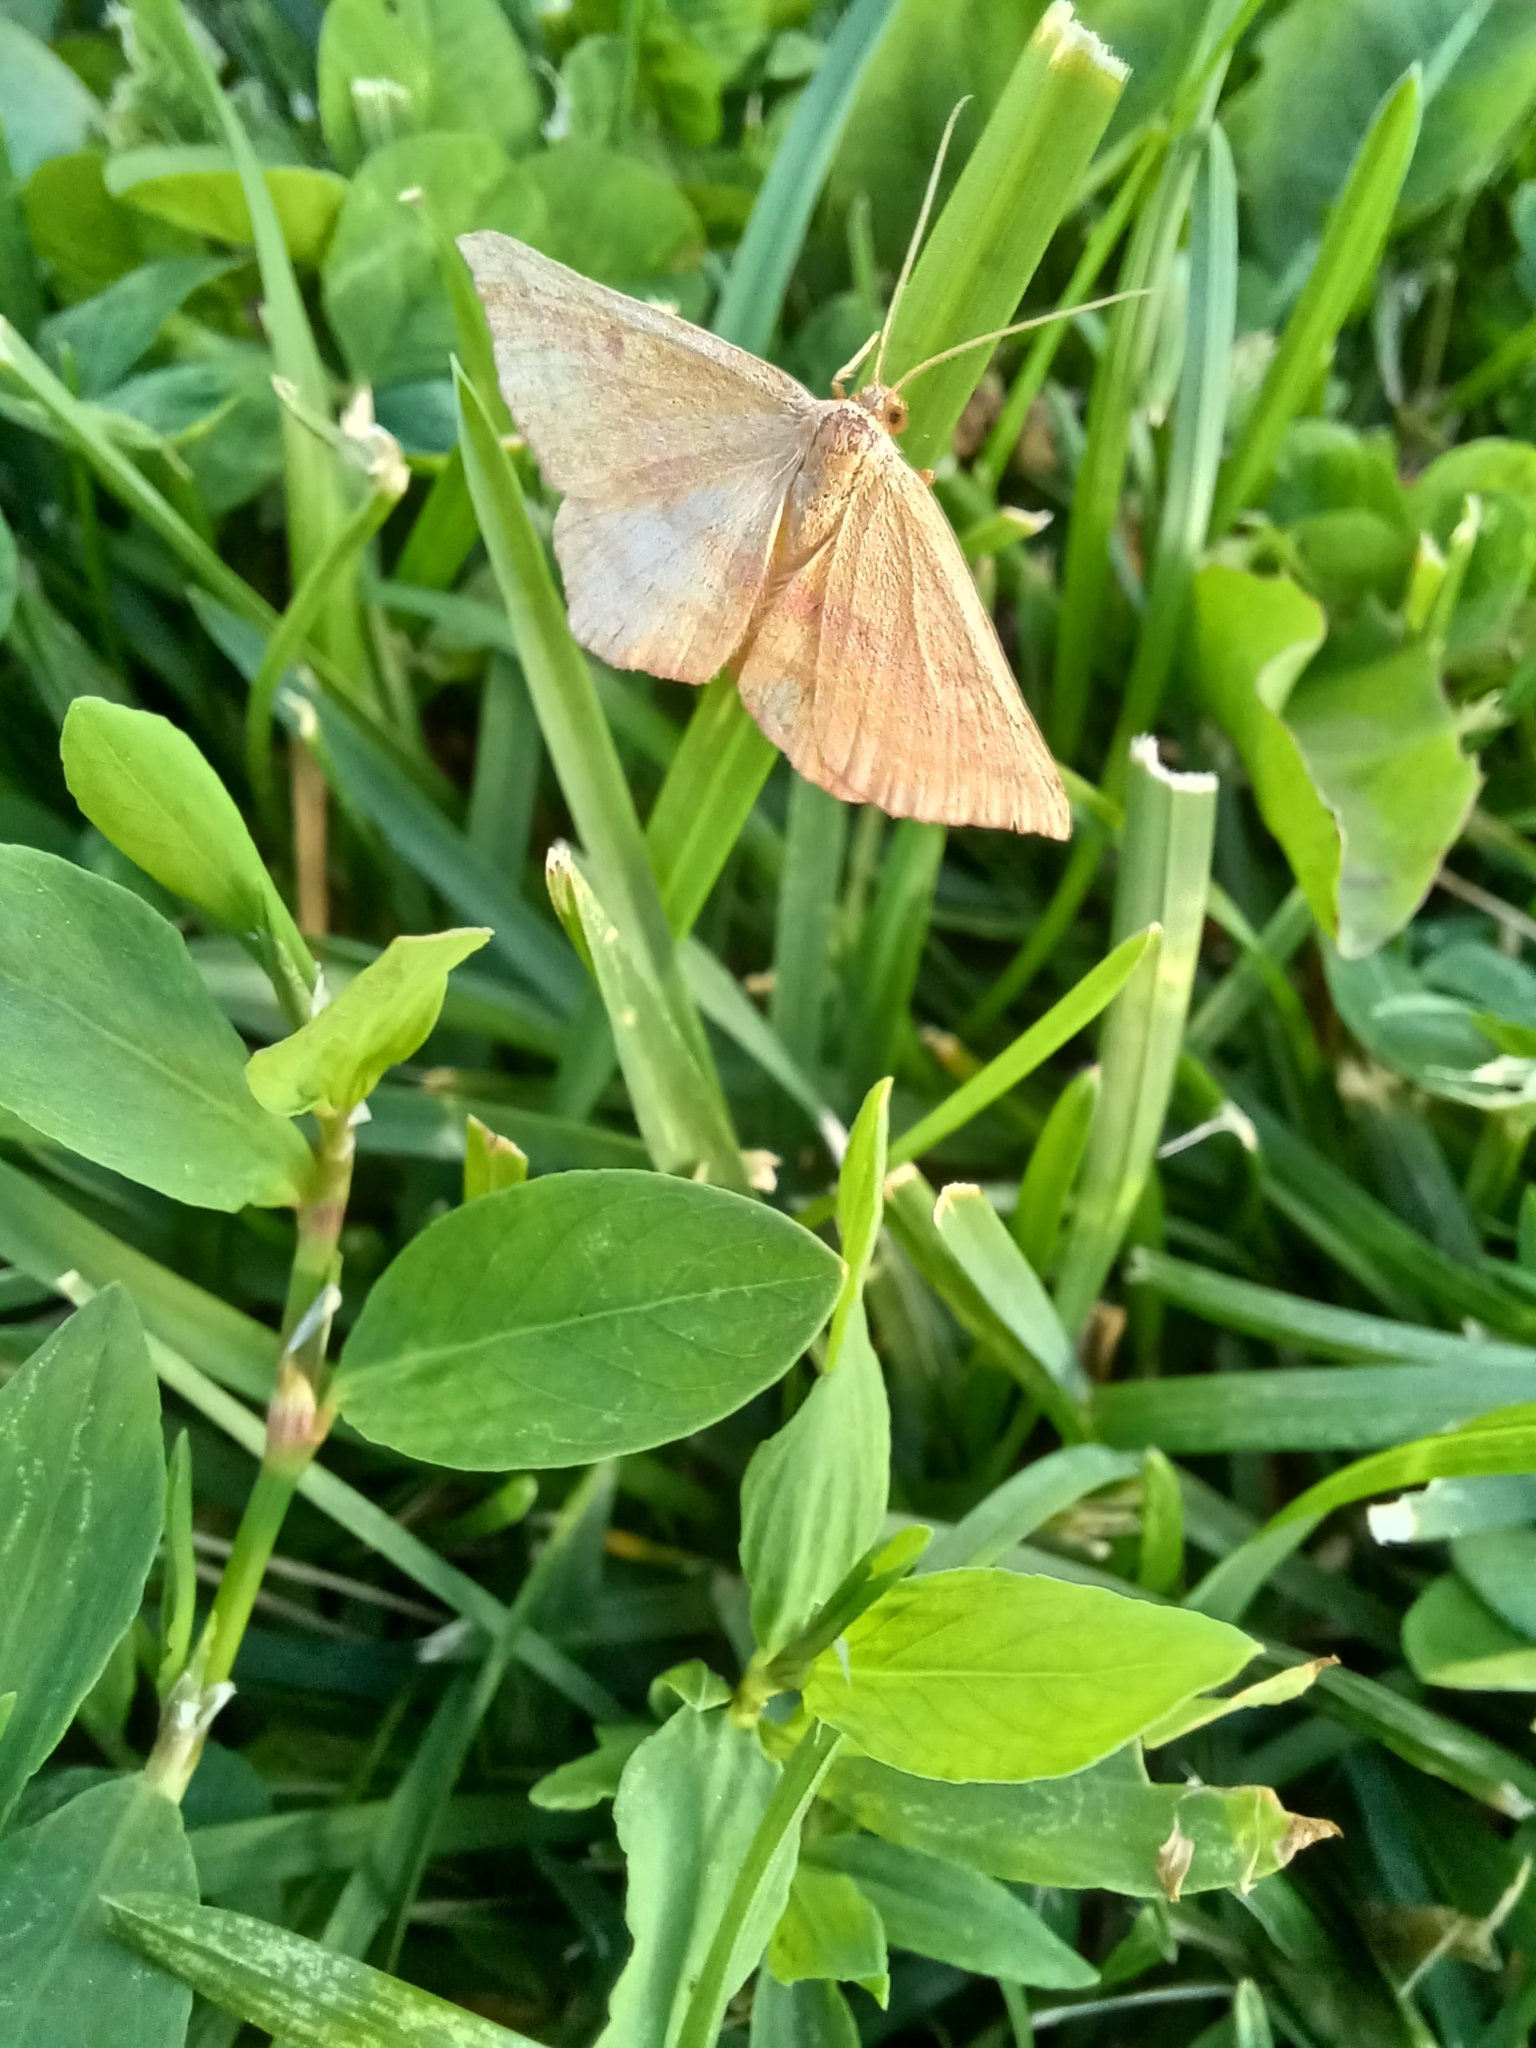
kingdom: Animalia
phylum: Arthropoda
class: Insecta
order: Lepidoptera
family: Geometridae
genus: Haematopis
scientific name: Haematopis grataria
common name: Chickweed geometer
